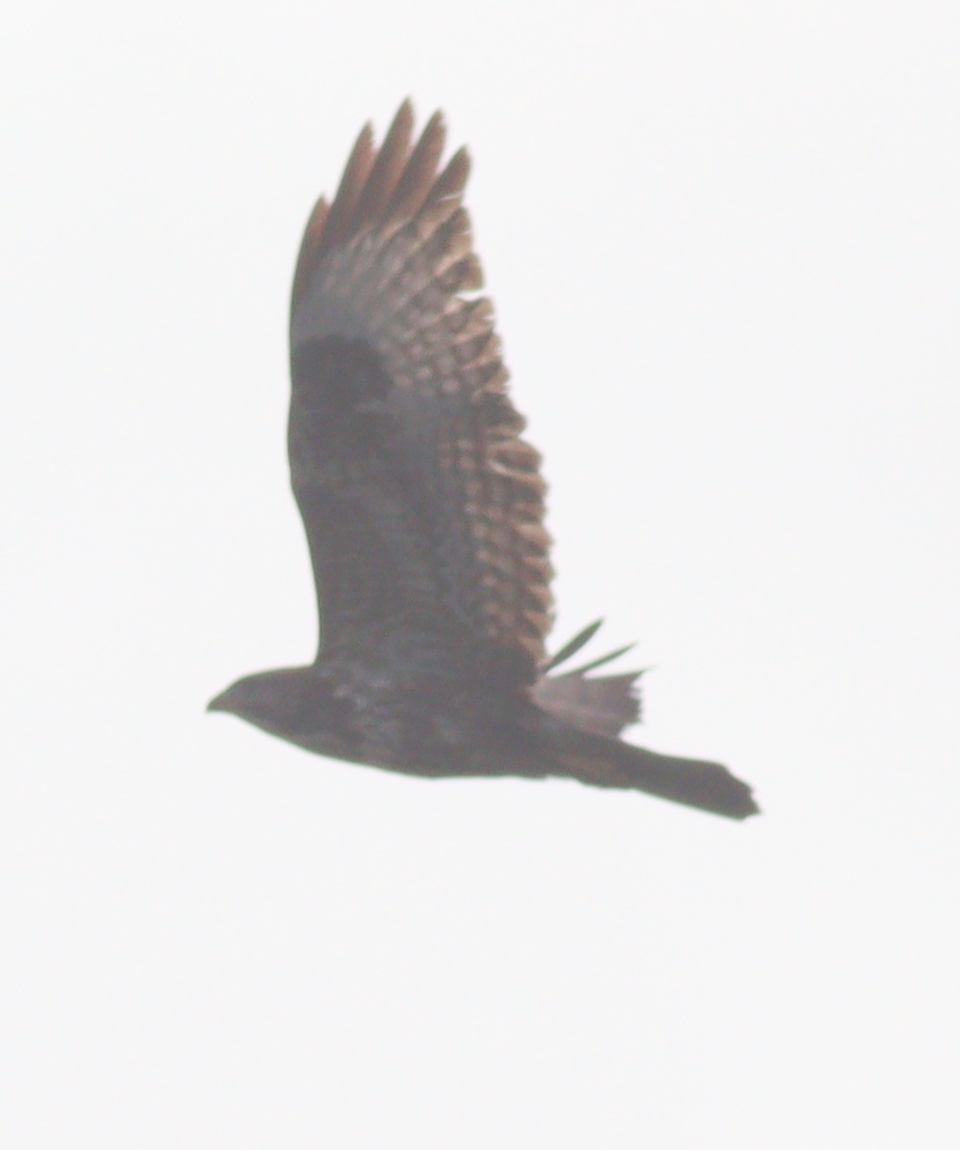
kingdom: Animalia
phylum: Chordata
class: Aves
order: Accipitriformes
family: Accipitridae
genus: Buteo
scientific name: Buteo buteo
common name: Common buzzard
